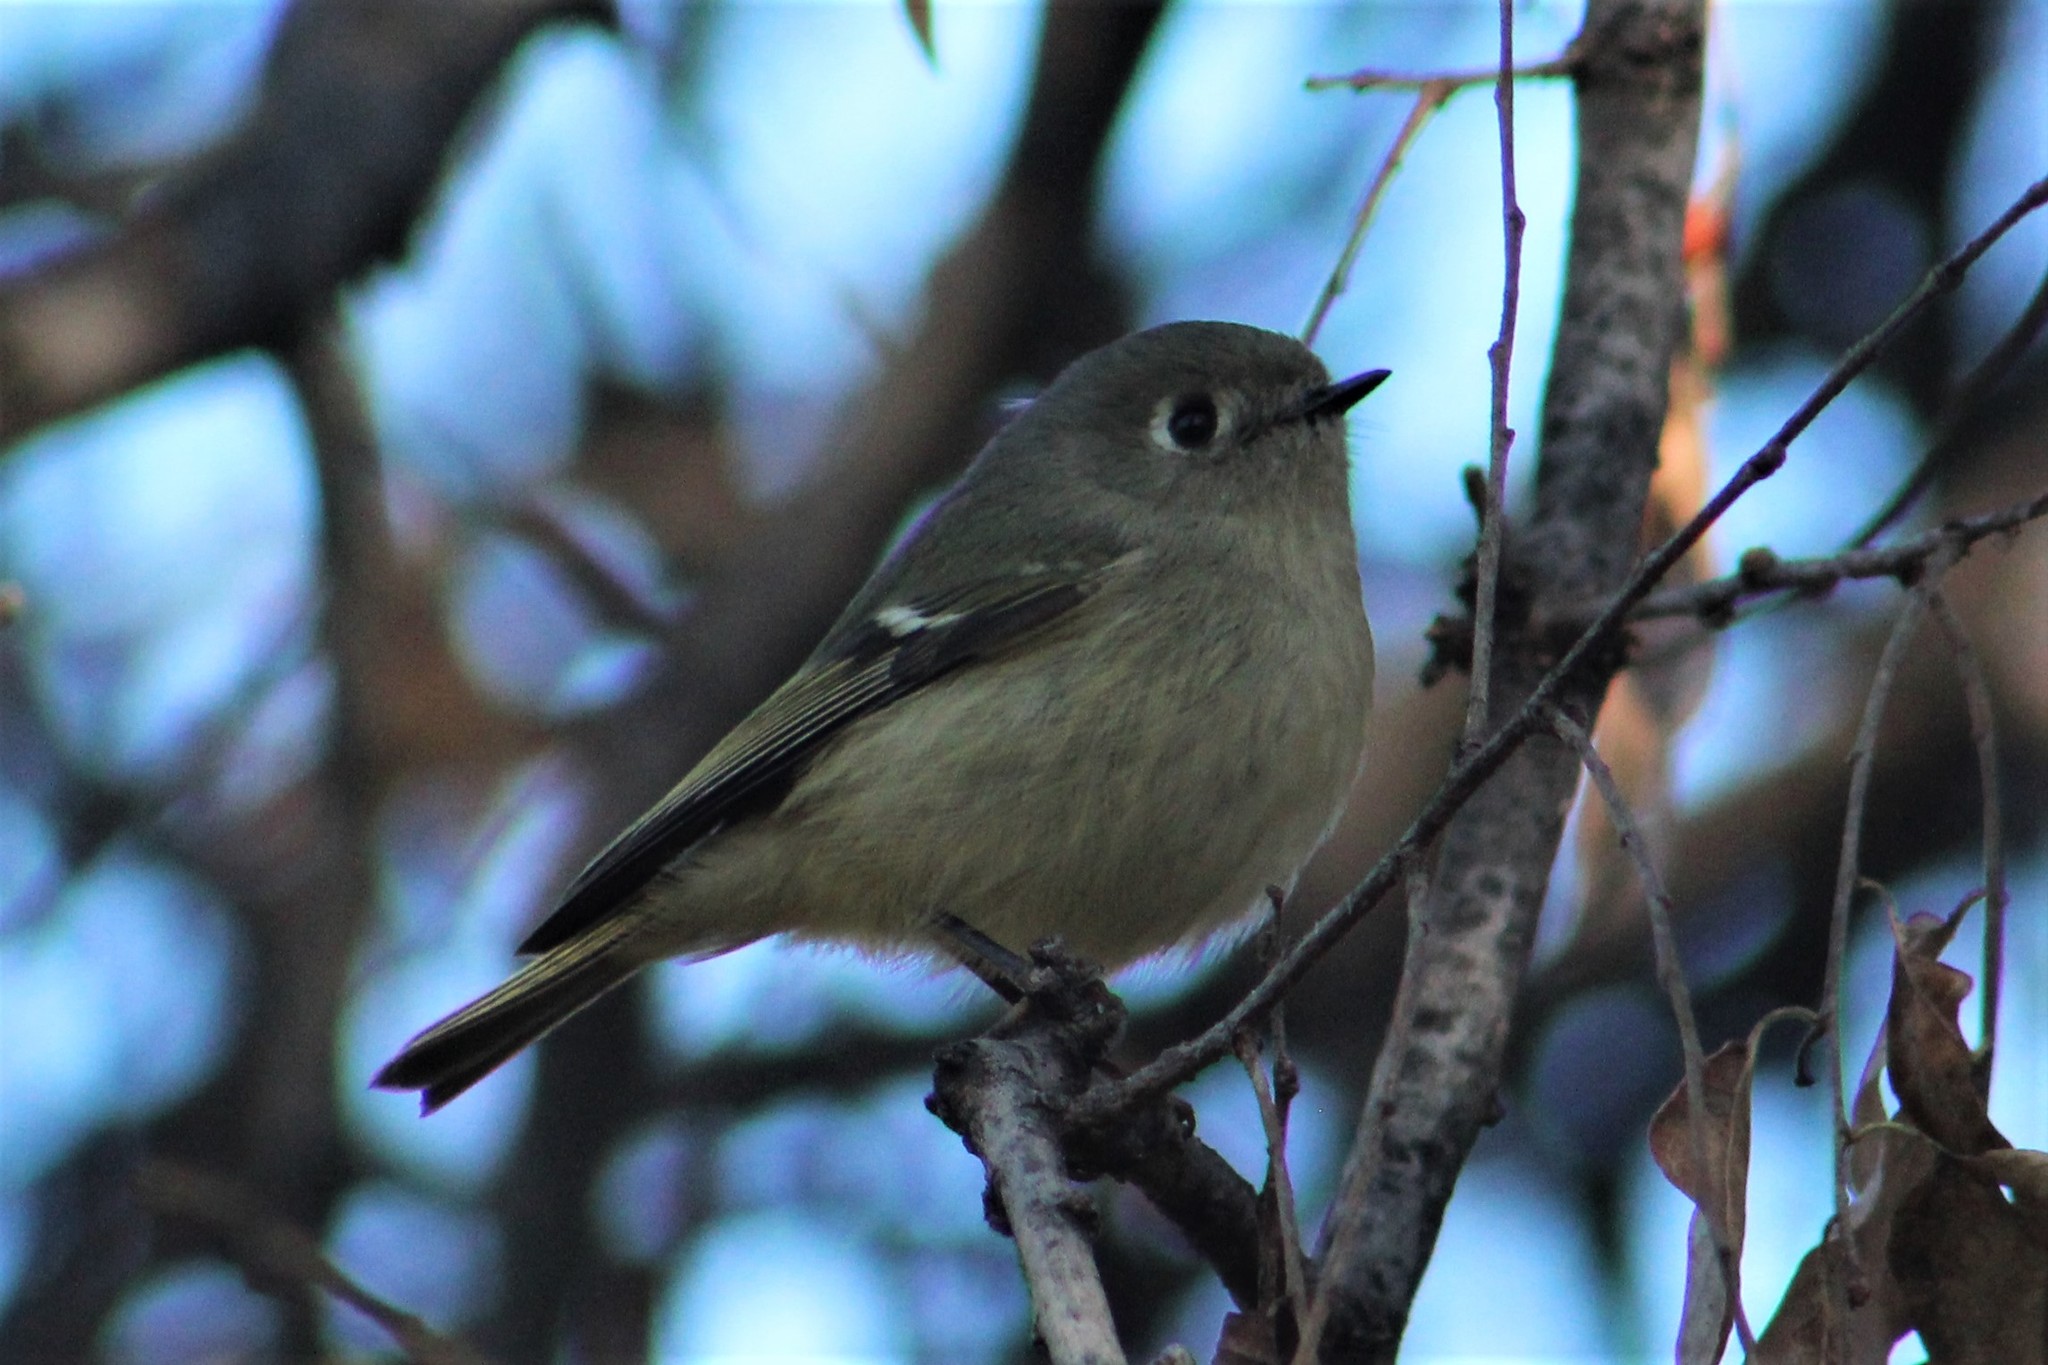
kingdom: Animalia
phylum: Chordata
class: Aves
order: Passeriformes
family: Regulidae
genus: Regulus
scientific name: Regulus calendula
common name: Ruby-crowned kinglet
